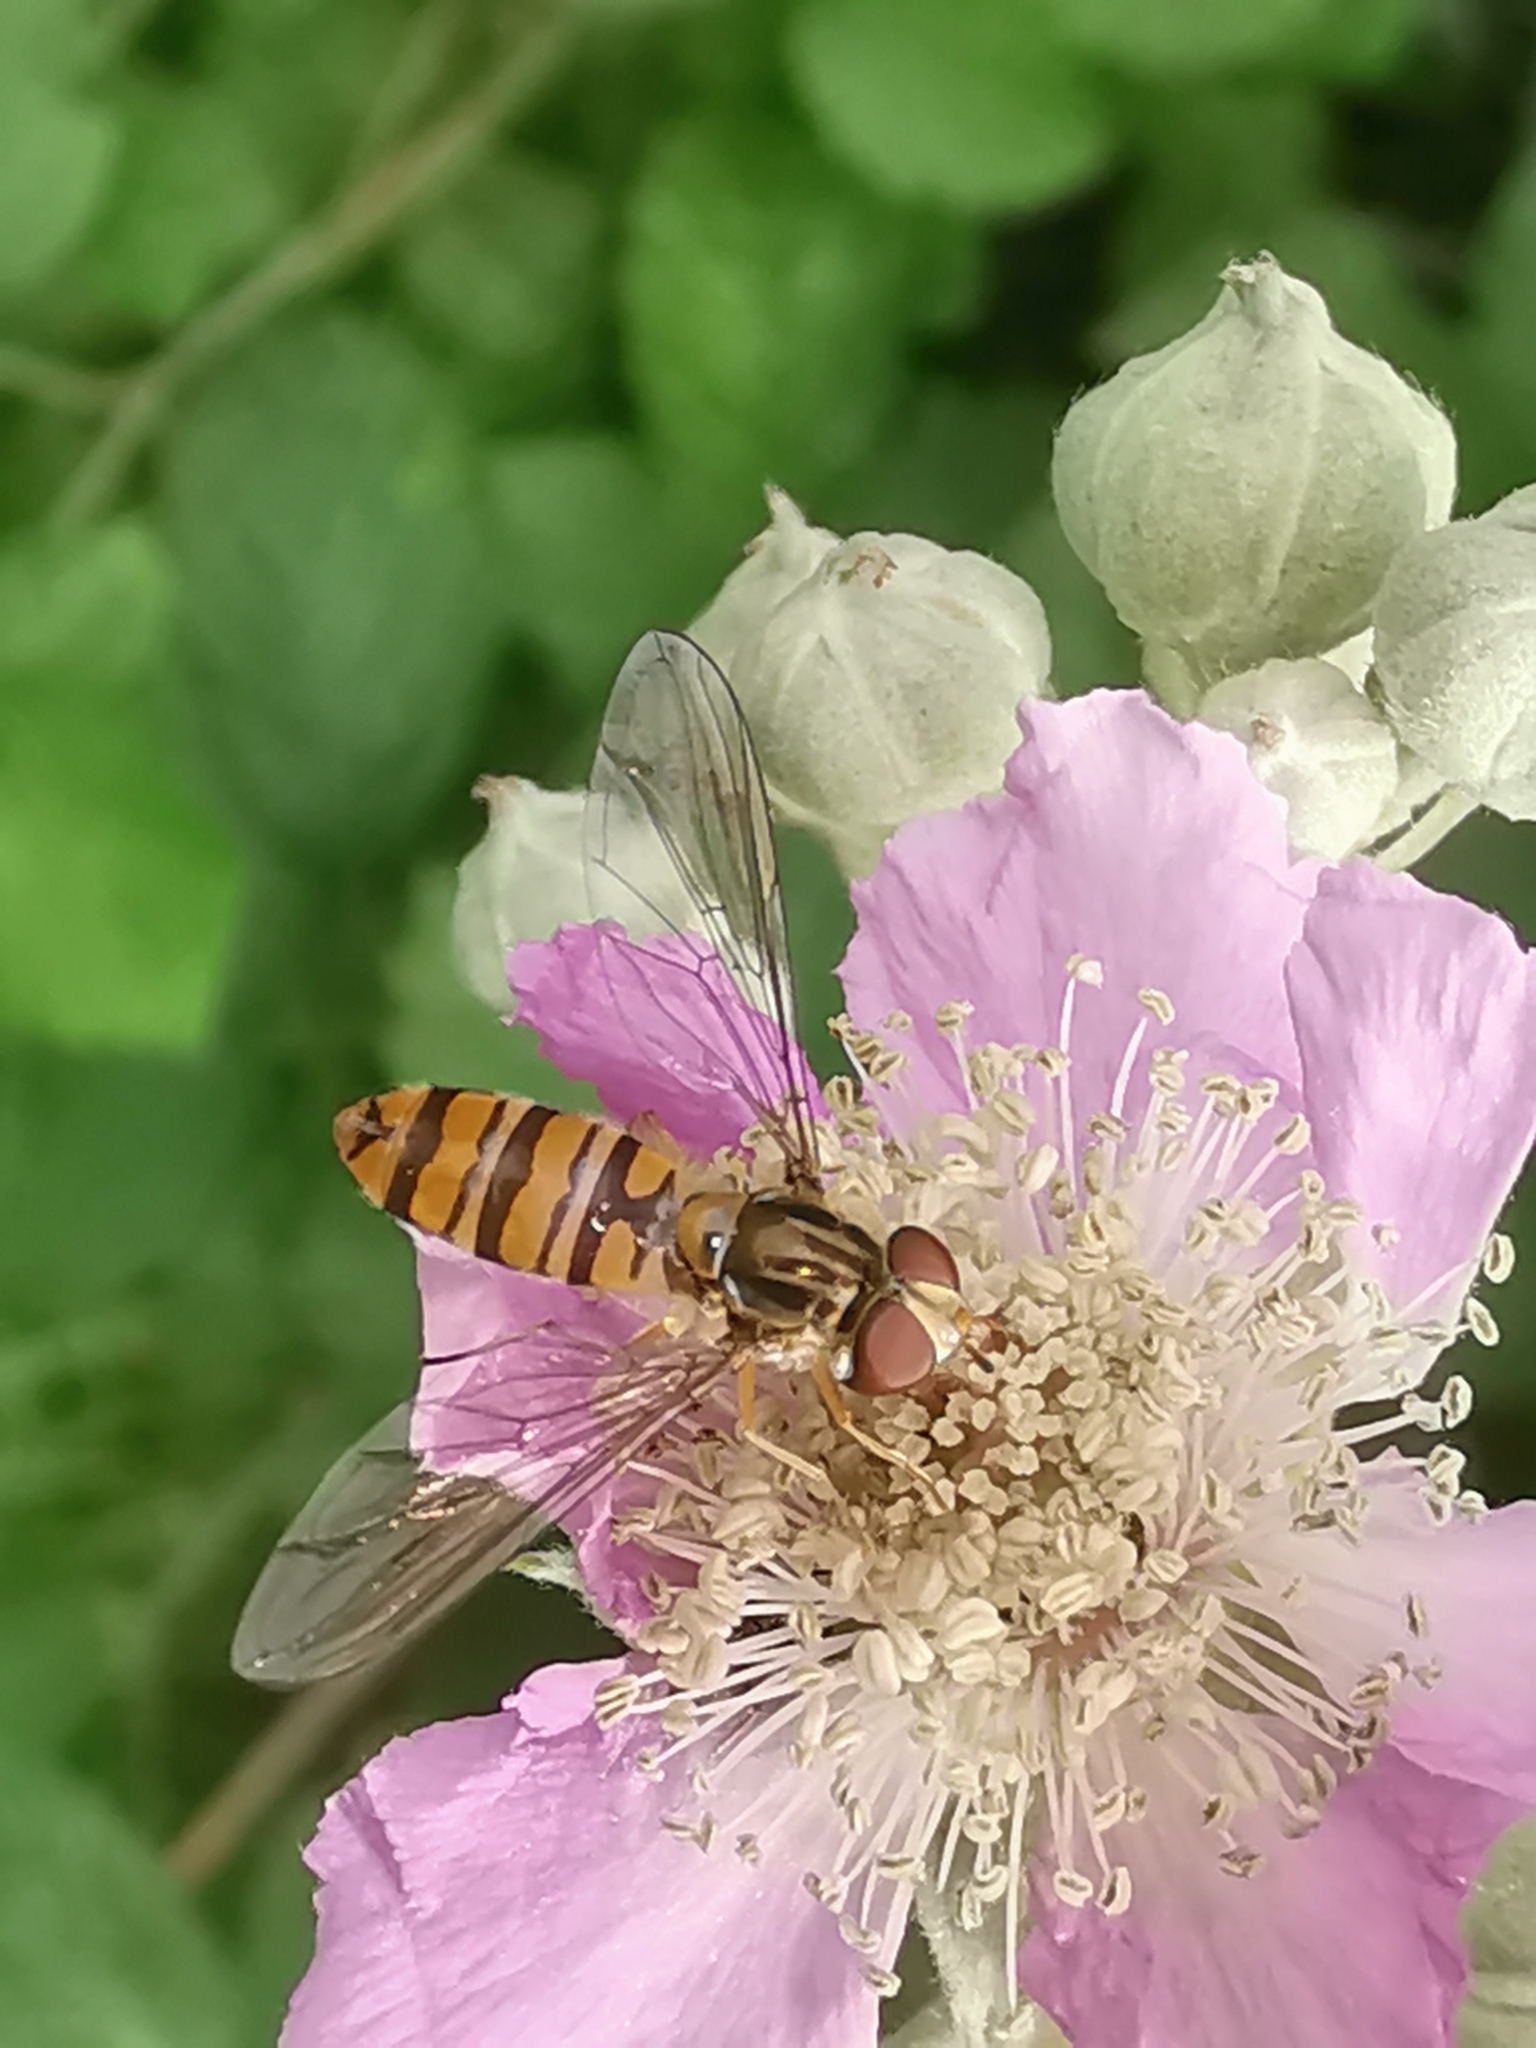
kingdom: Animalia
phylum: Arthropoda
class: Insecta
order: Diptera
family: Syrphidae
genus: Episyrphus
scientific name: Episyrphus balteatus
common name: Marmalade hoverfly
